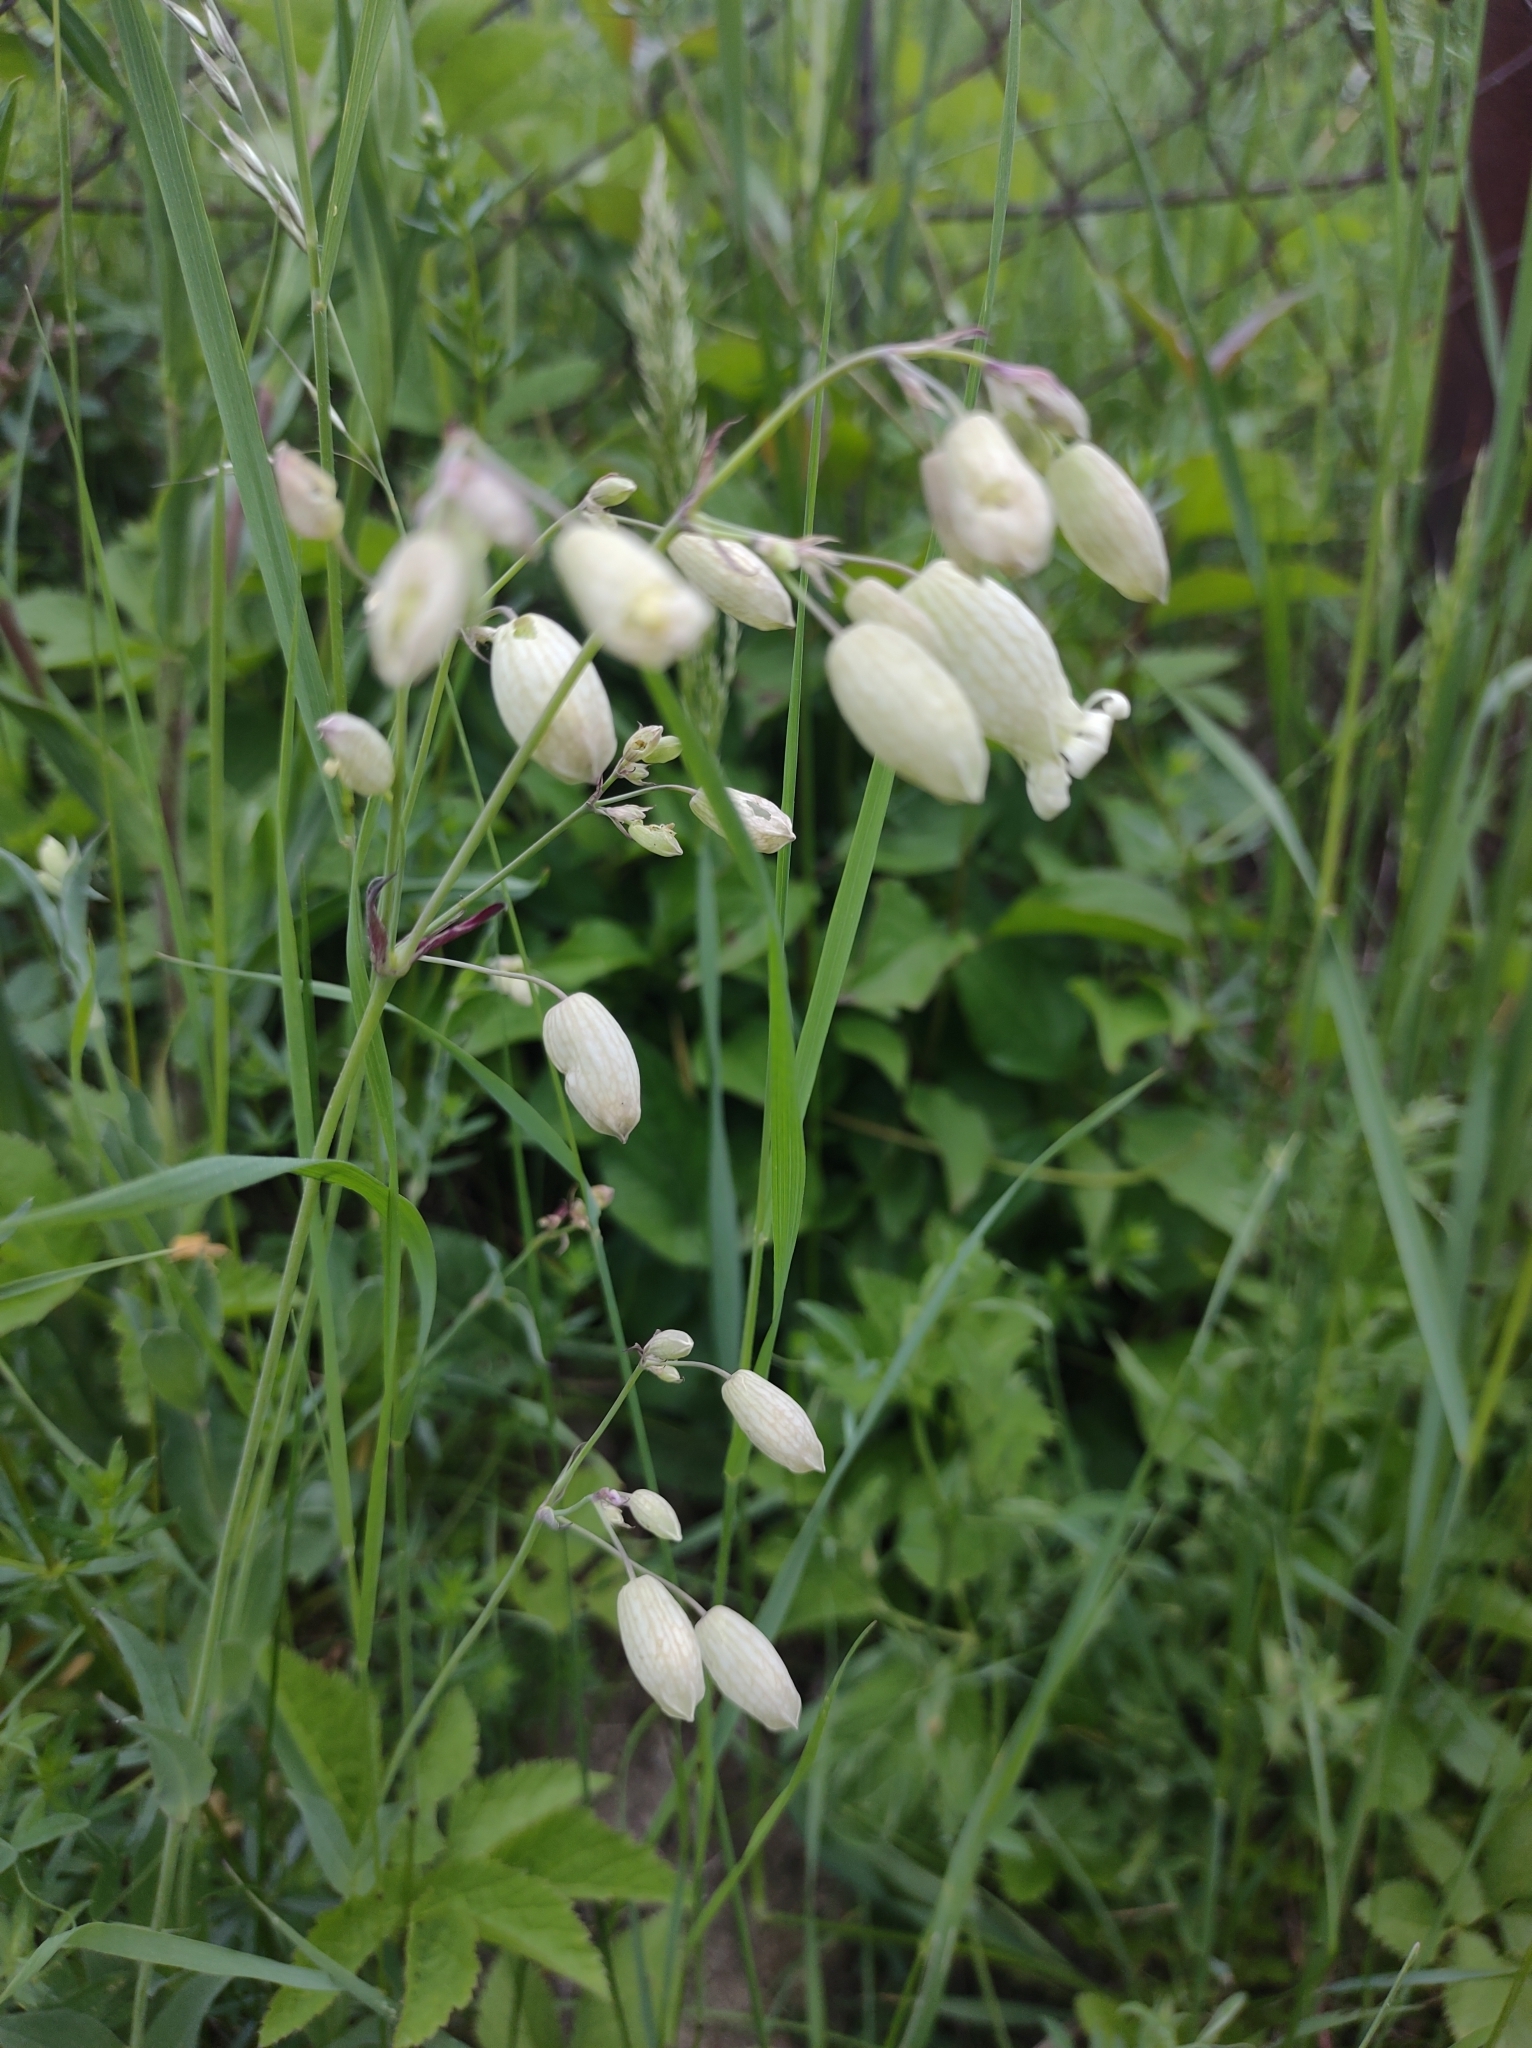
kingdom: Plantae
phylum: Tracheophyta
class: Magnoliopsida
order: Caryophyllales
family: Caryophyllaceae
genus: Silene
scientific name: Silene vulgaris
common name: Bladder campion
